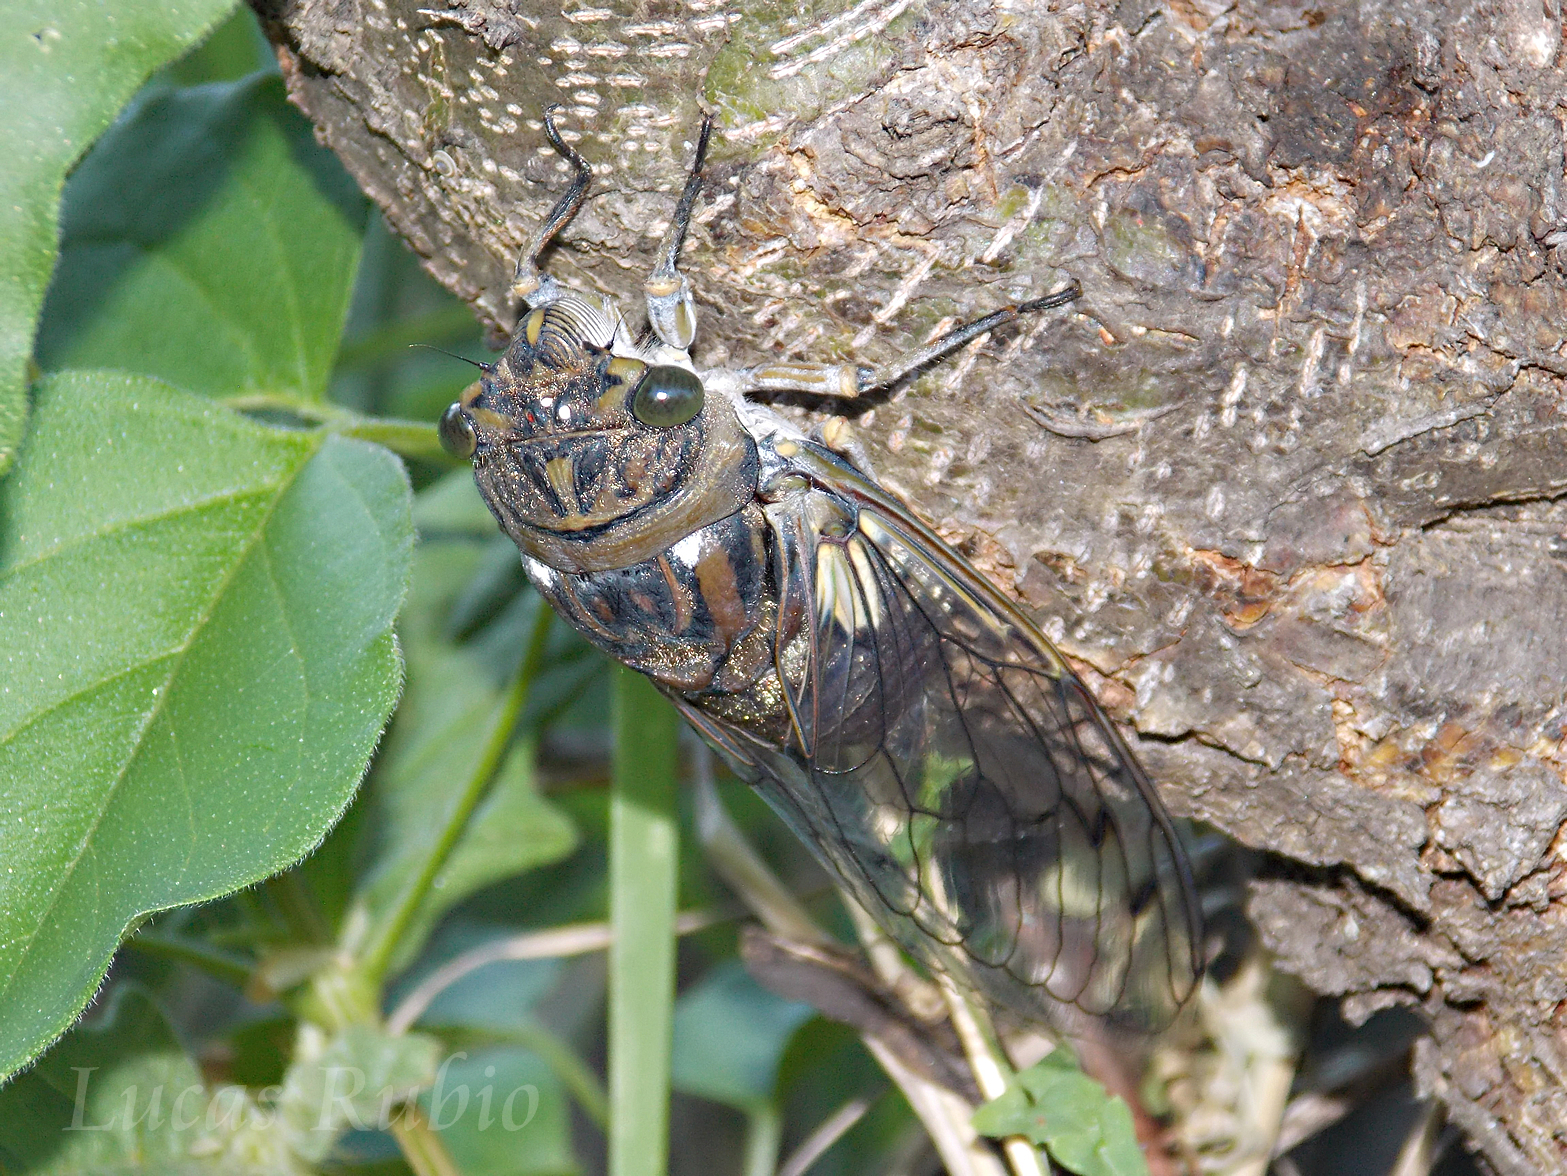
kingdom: Animalia
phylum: Arthropoda
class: Insecta
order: Hemiptera
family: Cicadidae
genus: Quesada
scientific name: Quesada gigas
